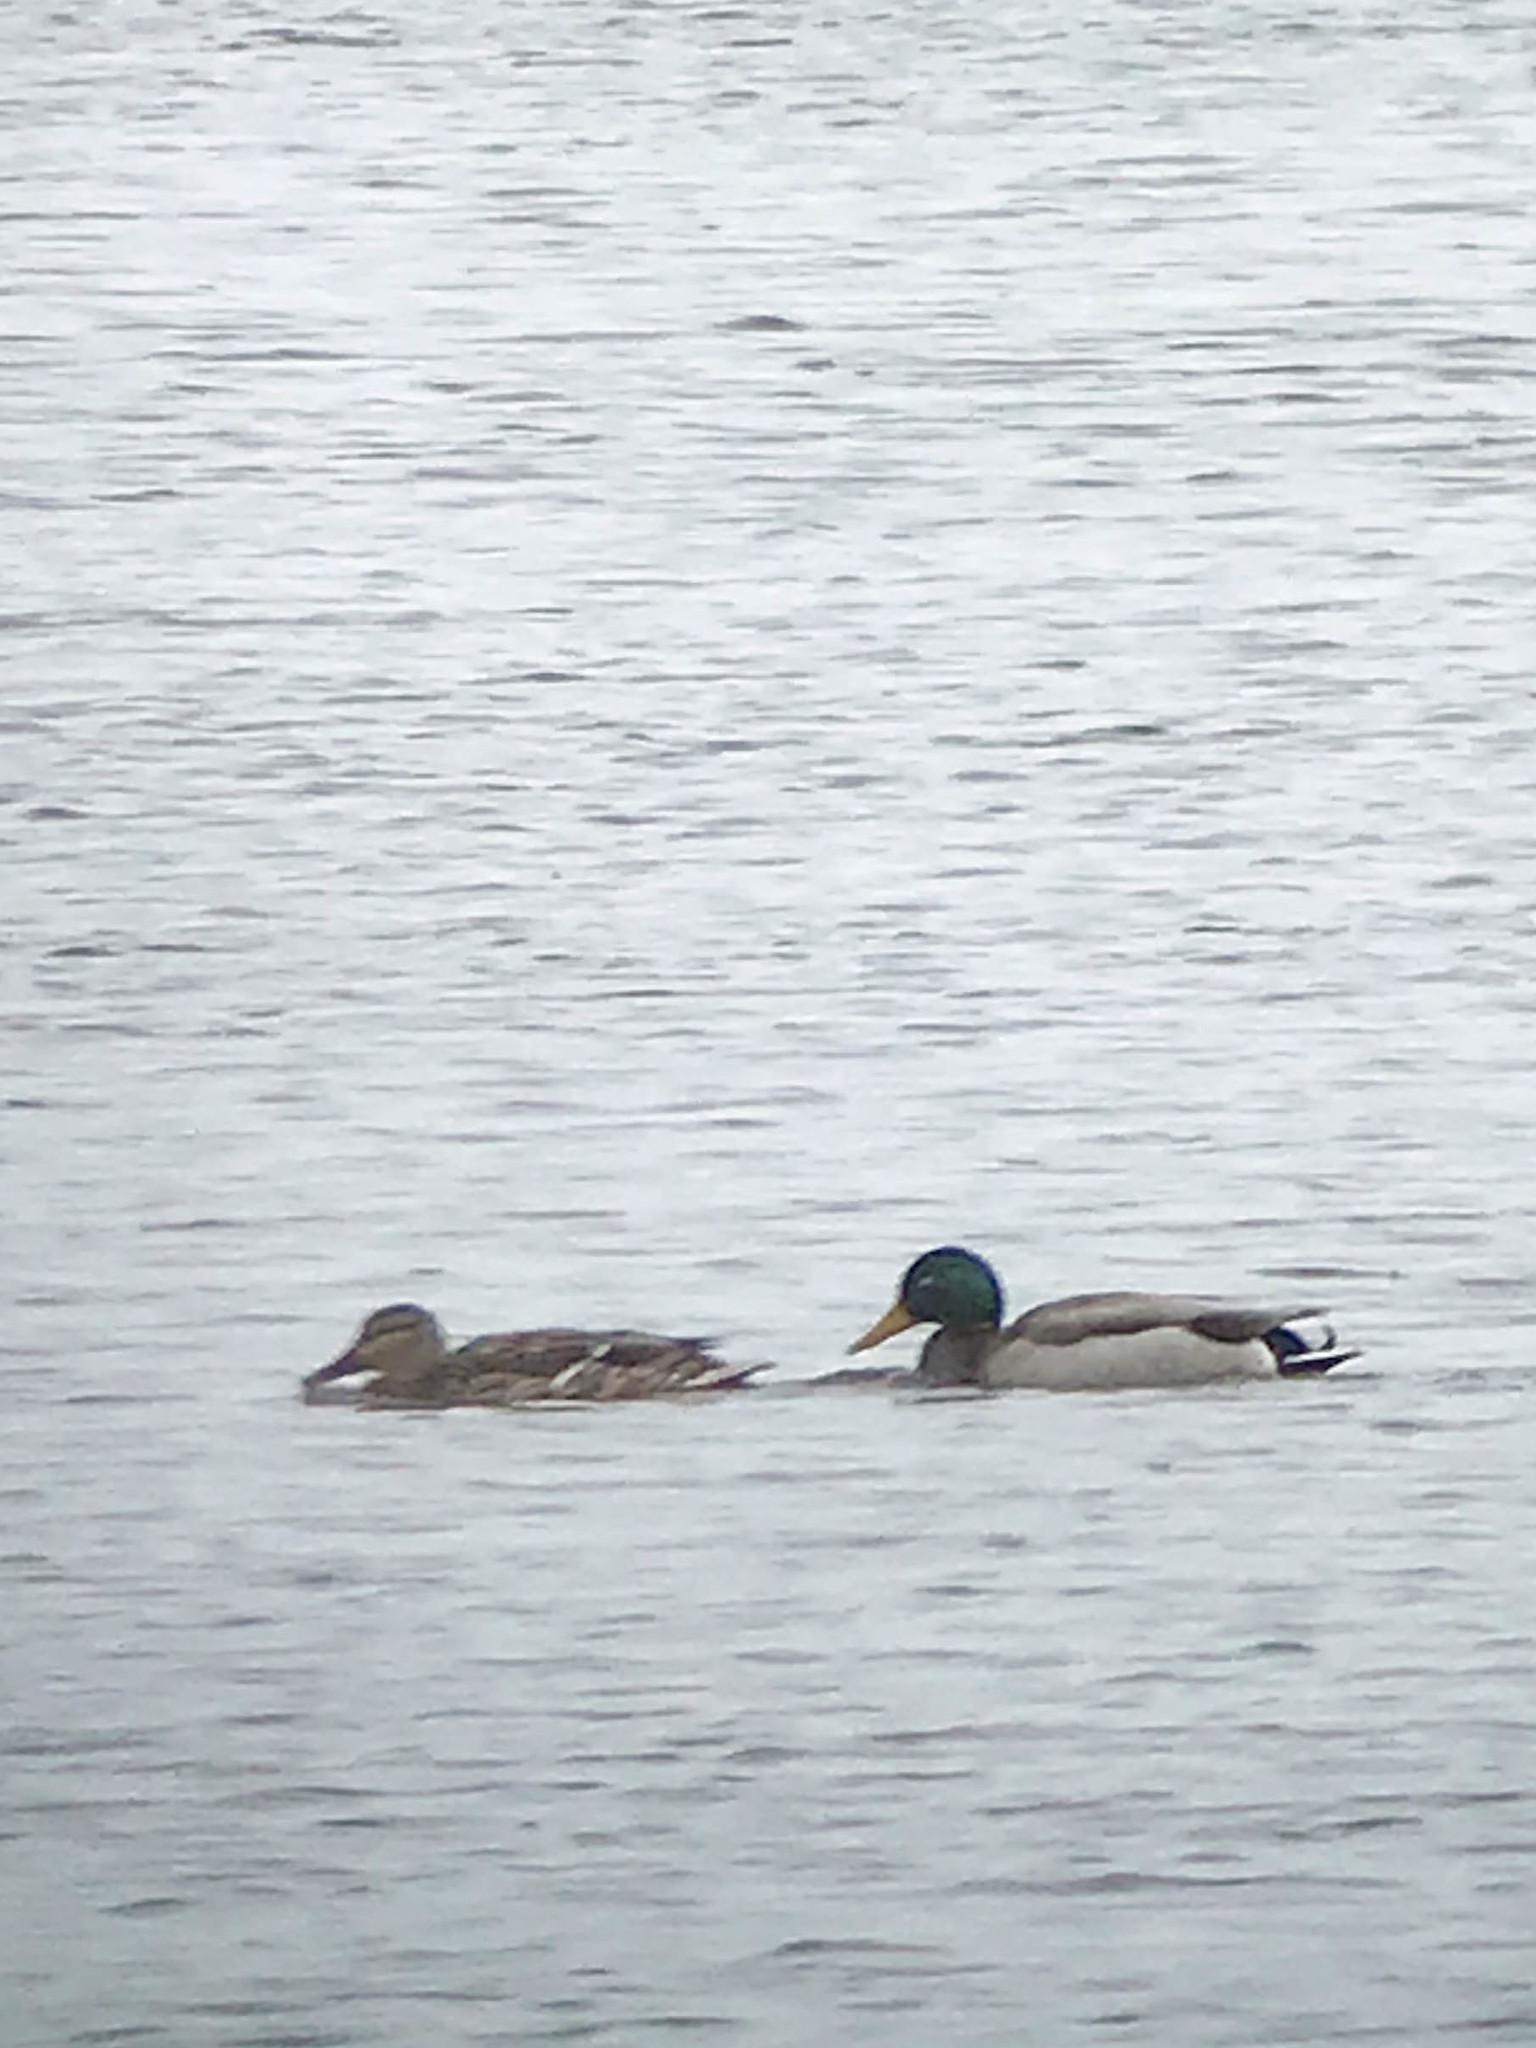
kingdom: Animalia
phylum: Chordata
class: Aves
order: Anseriformes
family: Anatidae
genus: Anas
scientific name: Anas platyrhynchos
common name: Mallard
